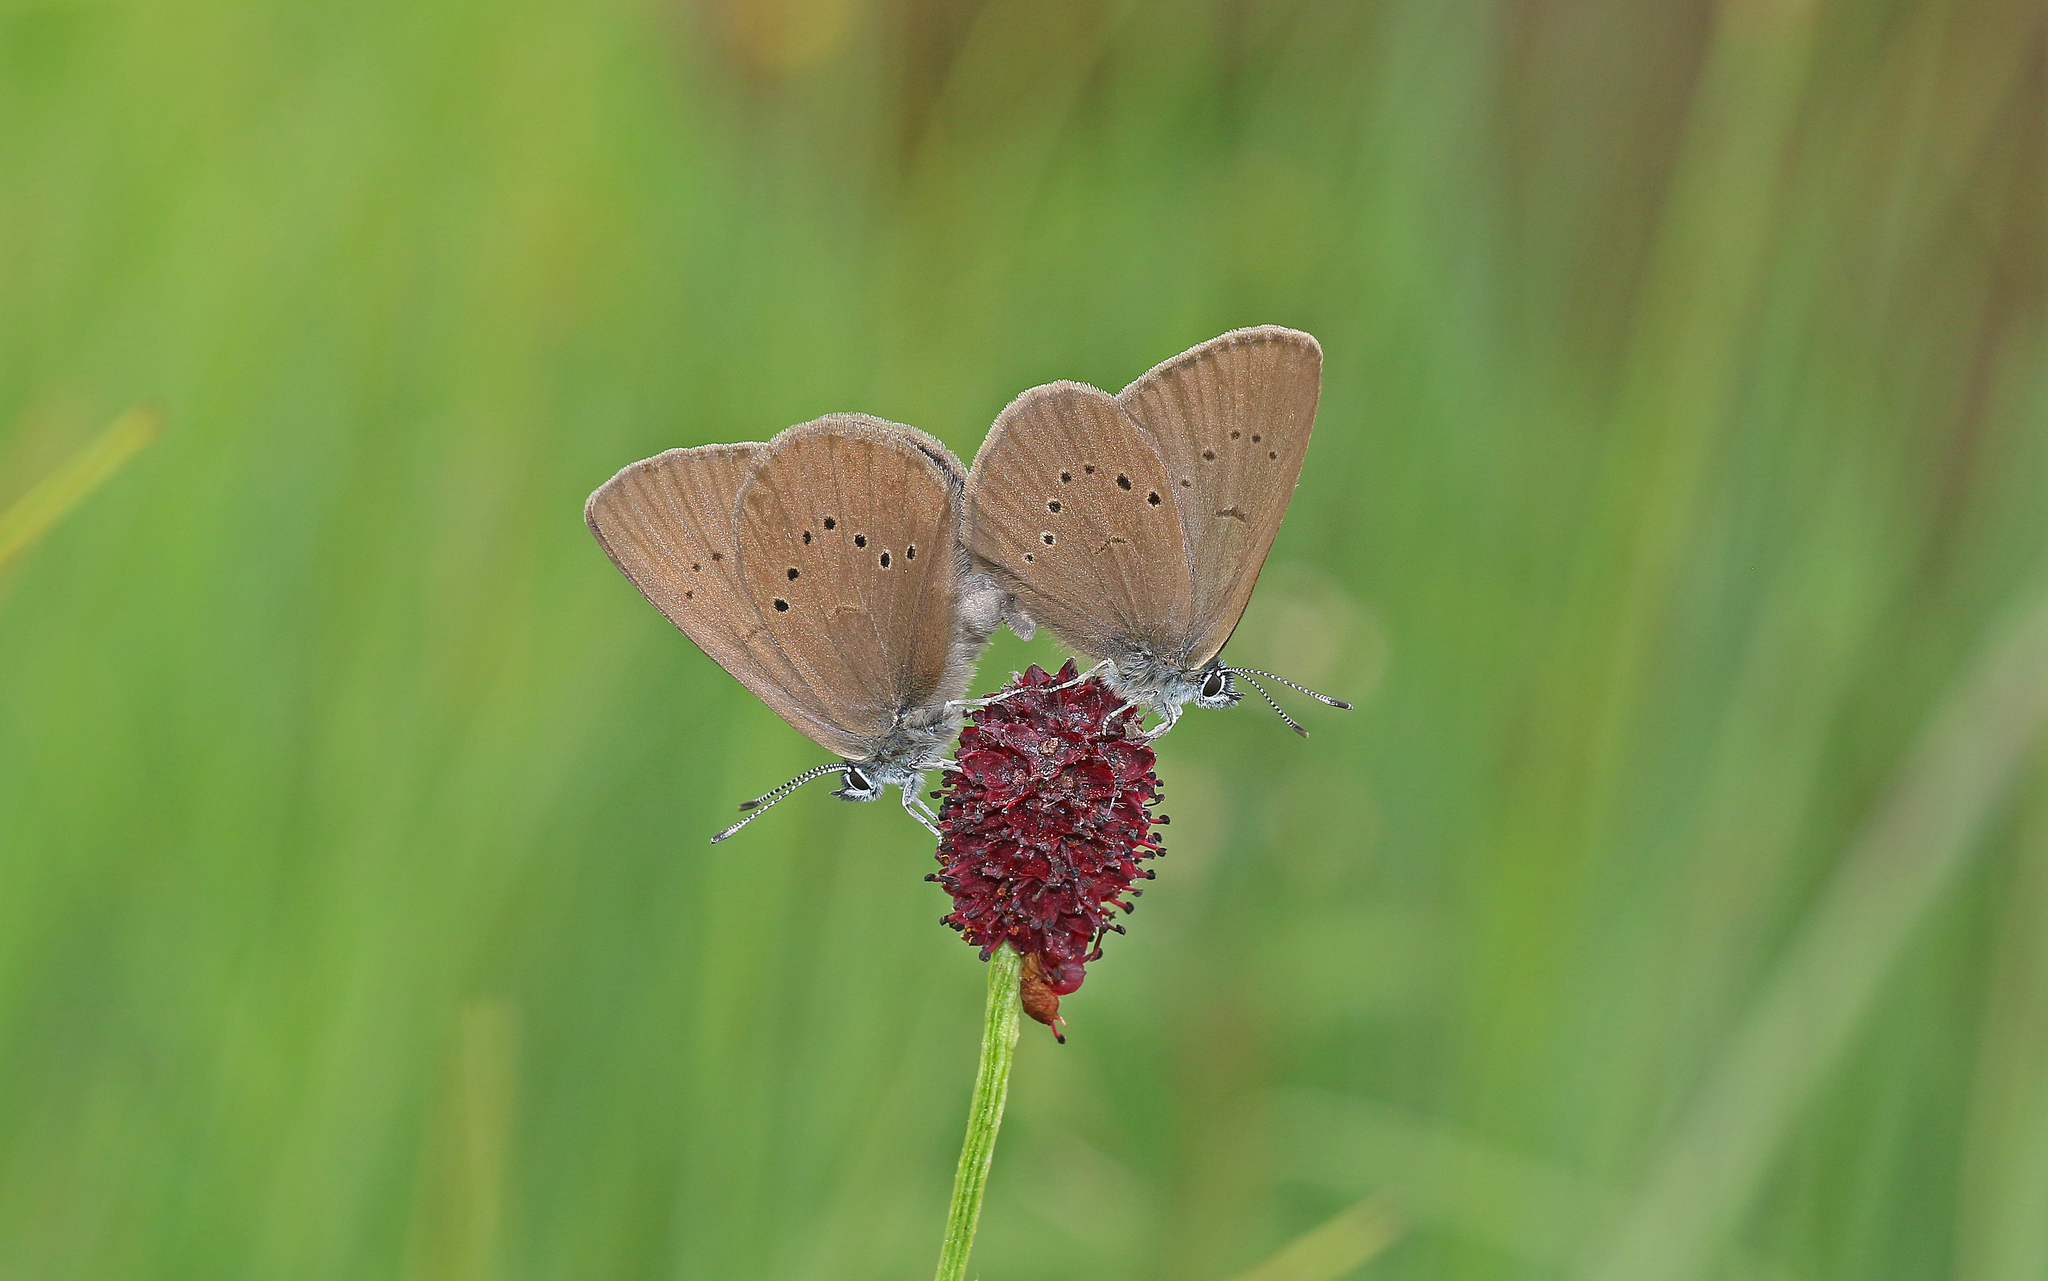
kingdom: Animalia
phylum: Arthropoda
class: Insecta
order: Lepidoptera
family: Lycaenidae
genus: Maculinea
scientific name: Maculinea nausithous
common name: Dusky large blue
